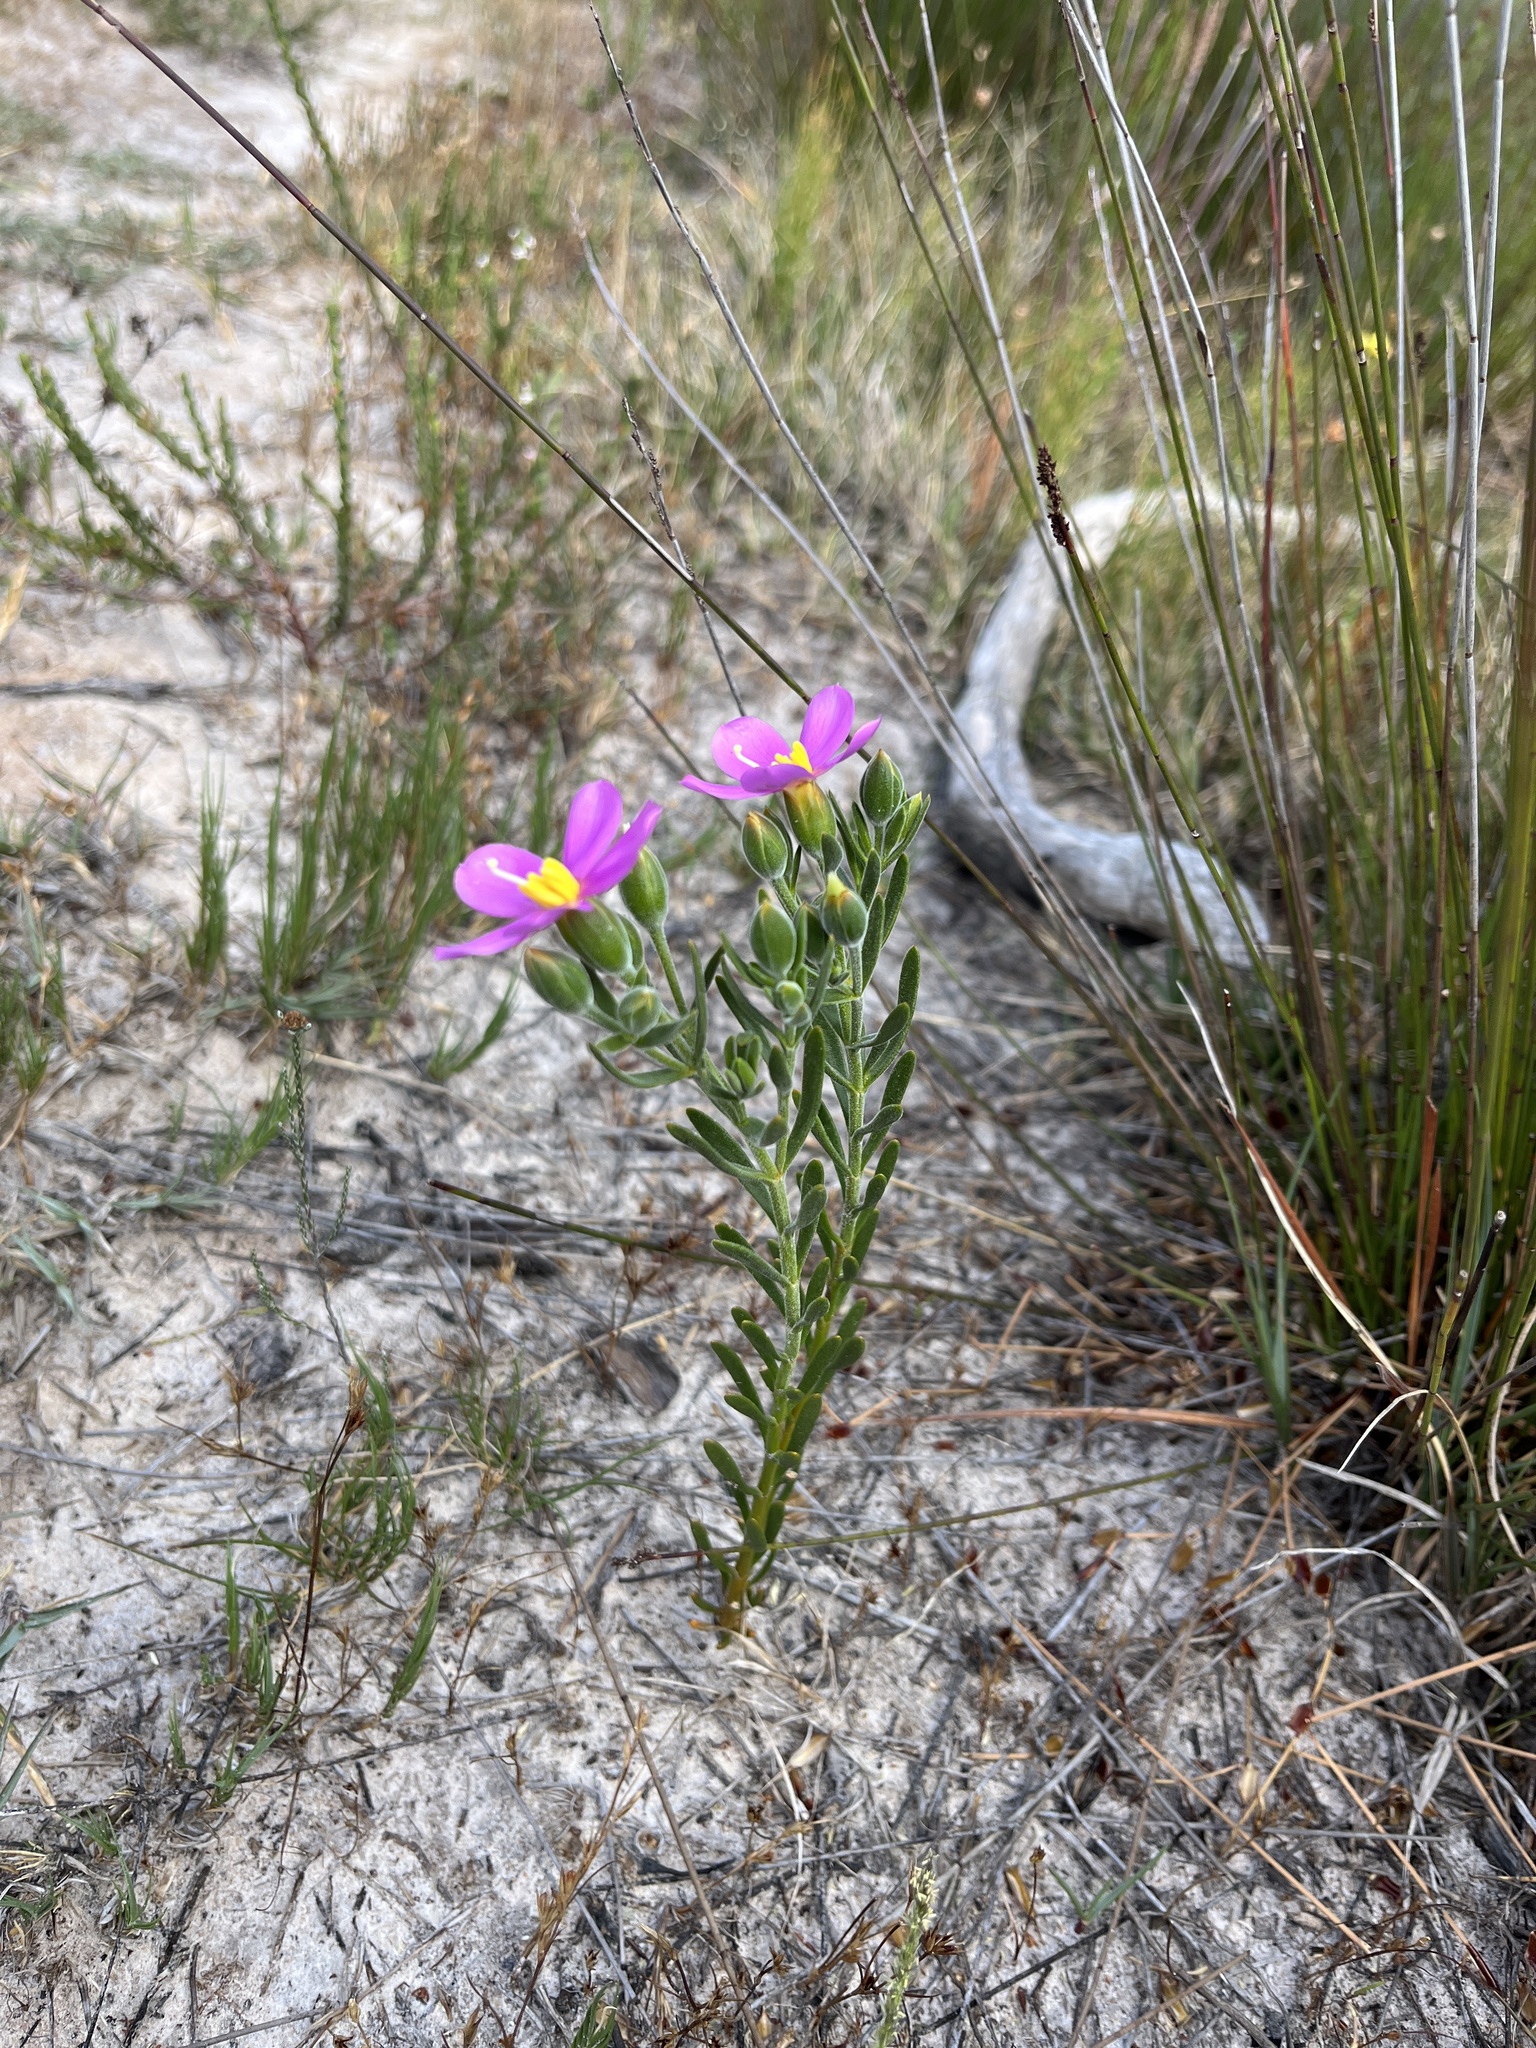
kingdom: Plantae
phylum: Tracheophyta
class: Magnoliopsida
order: Gentianales
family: Gentianaceae
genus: Orphium
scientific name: Orphium frutescens
